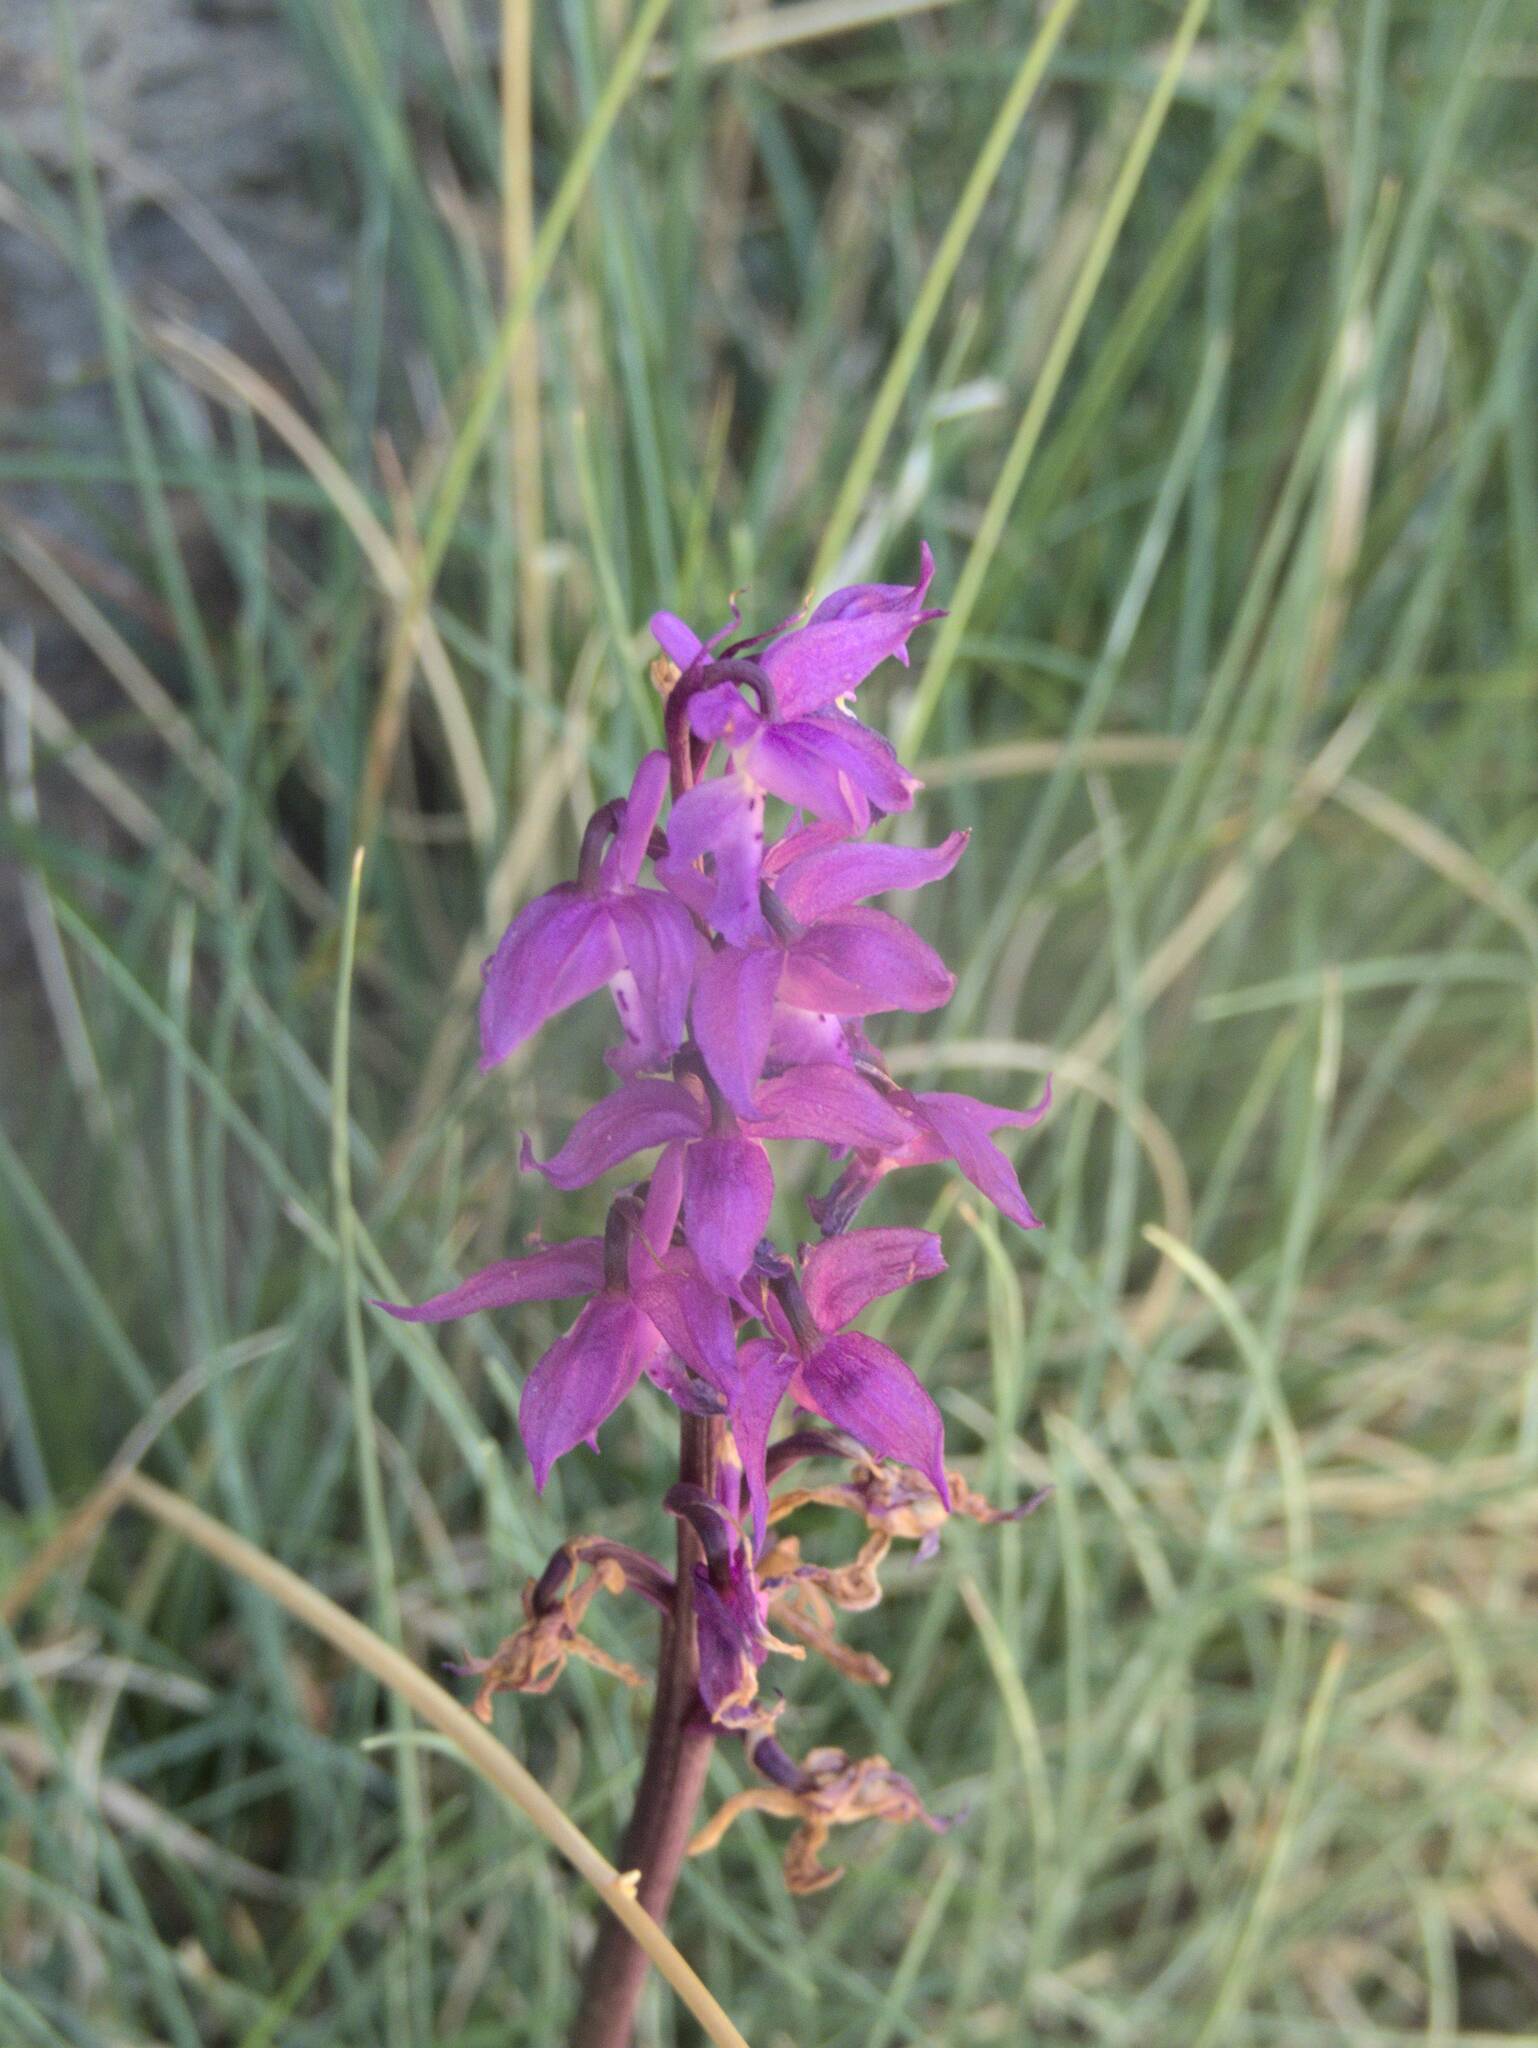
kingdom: Plantae
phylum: Tracheophyta
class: Liliopsida
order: Asparagales
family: Orchidaceae
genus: Orchis
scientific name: Orchis mascula
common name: Early-purple orchid
